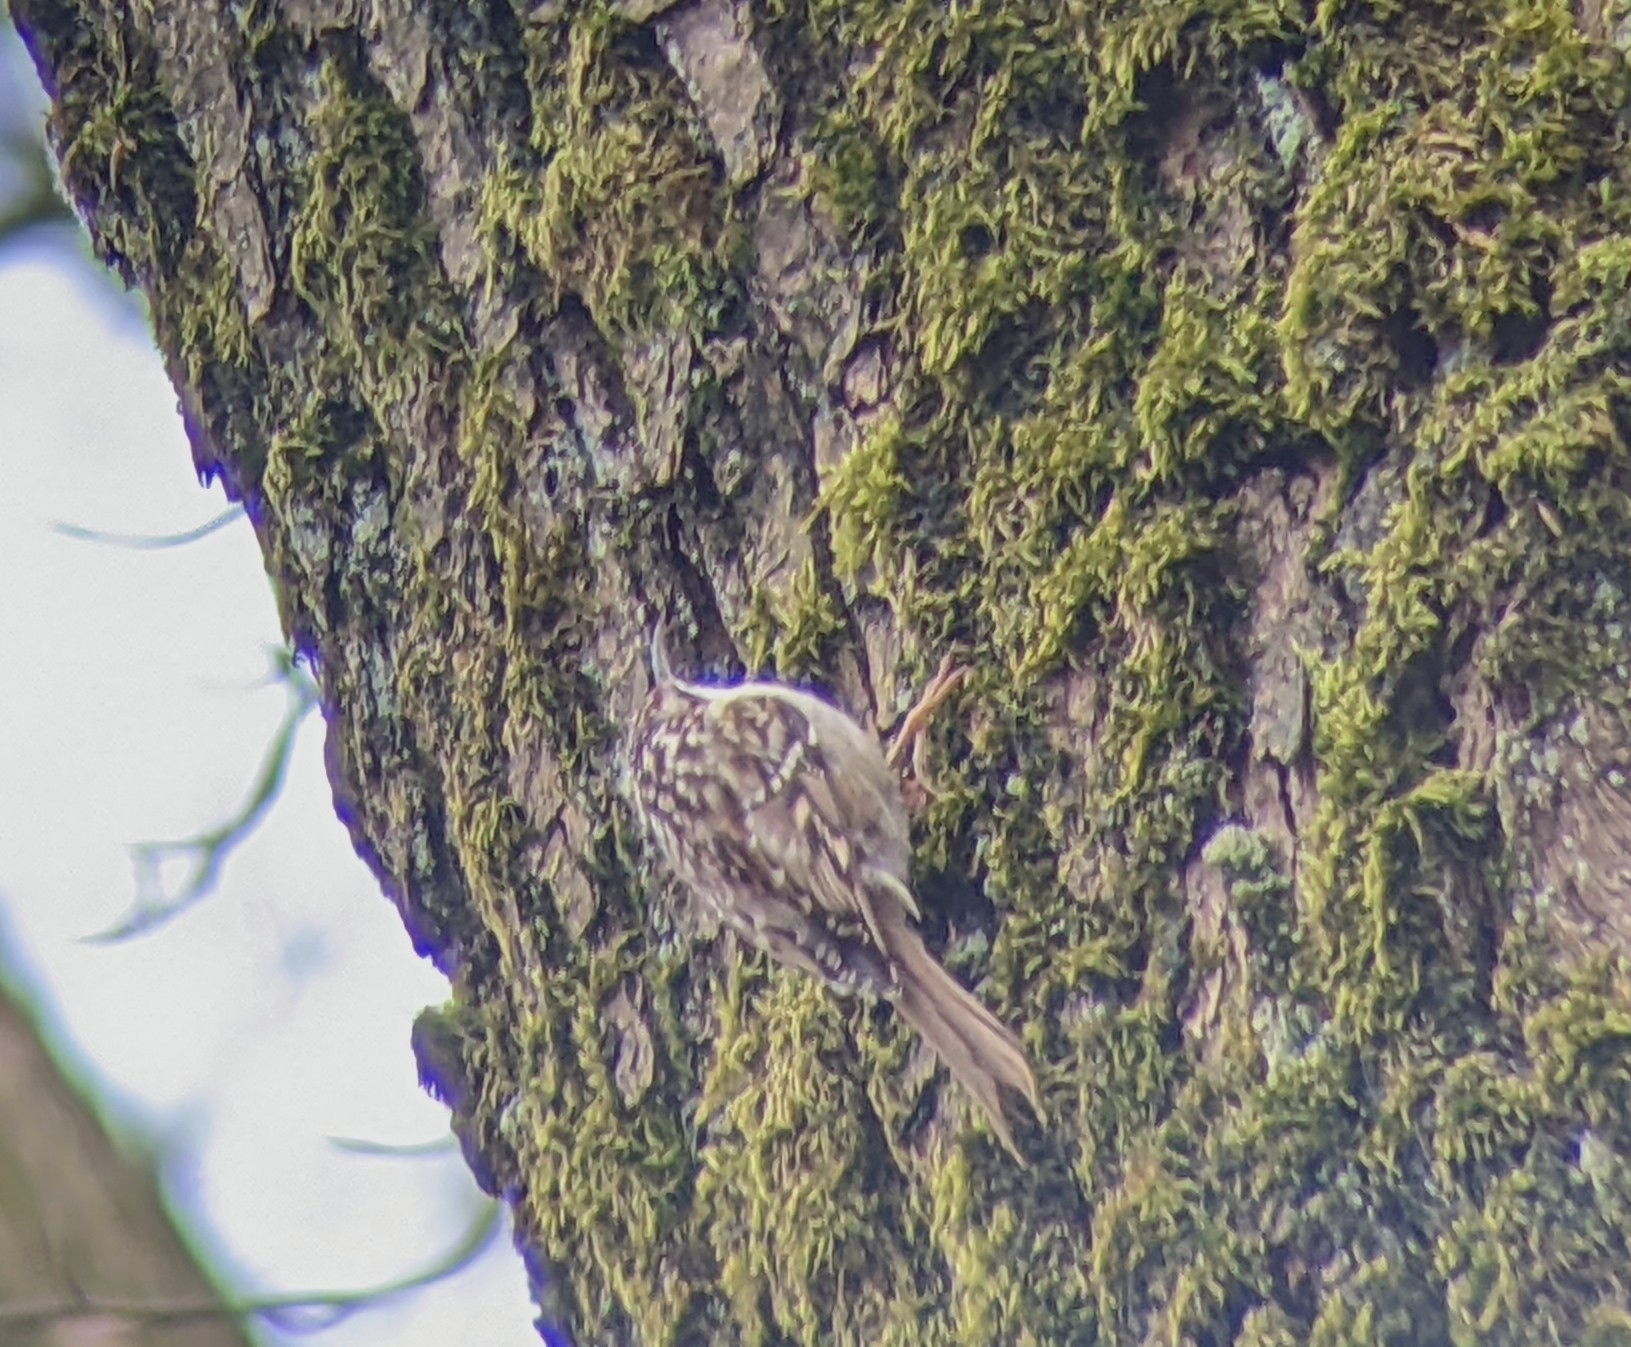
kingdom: Animalia
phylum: Chordata
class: Aves
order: Passeriformes
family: Certhiidae
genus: Certhia
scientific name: Certhia brachydactyla
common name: Short-toed treecreeper
